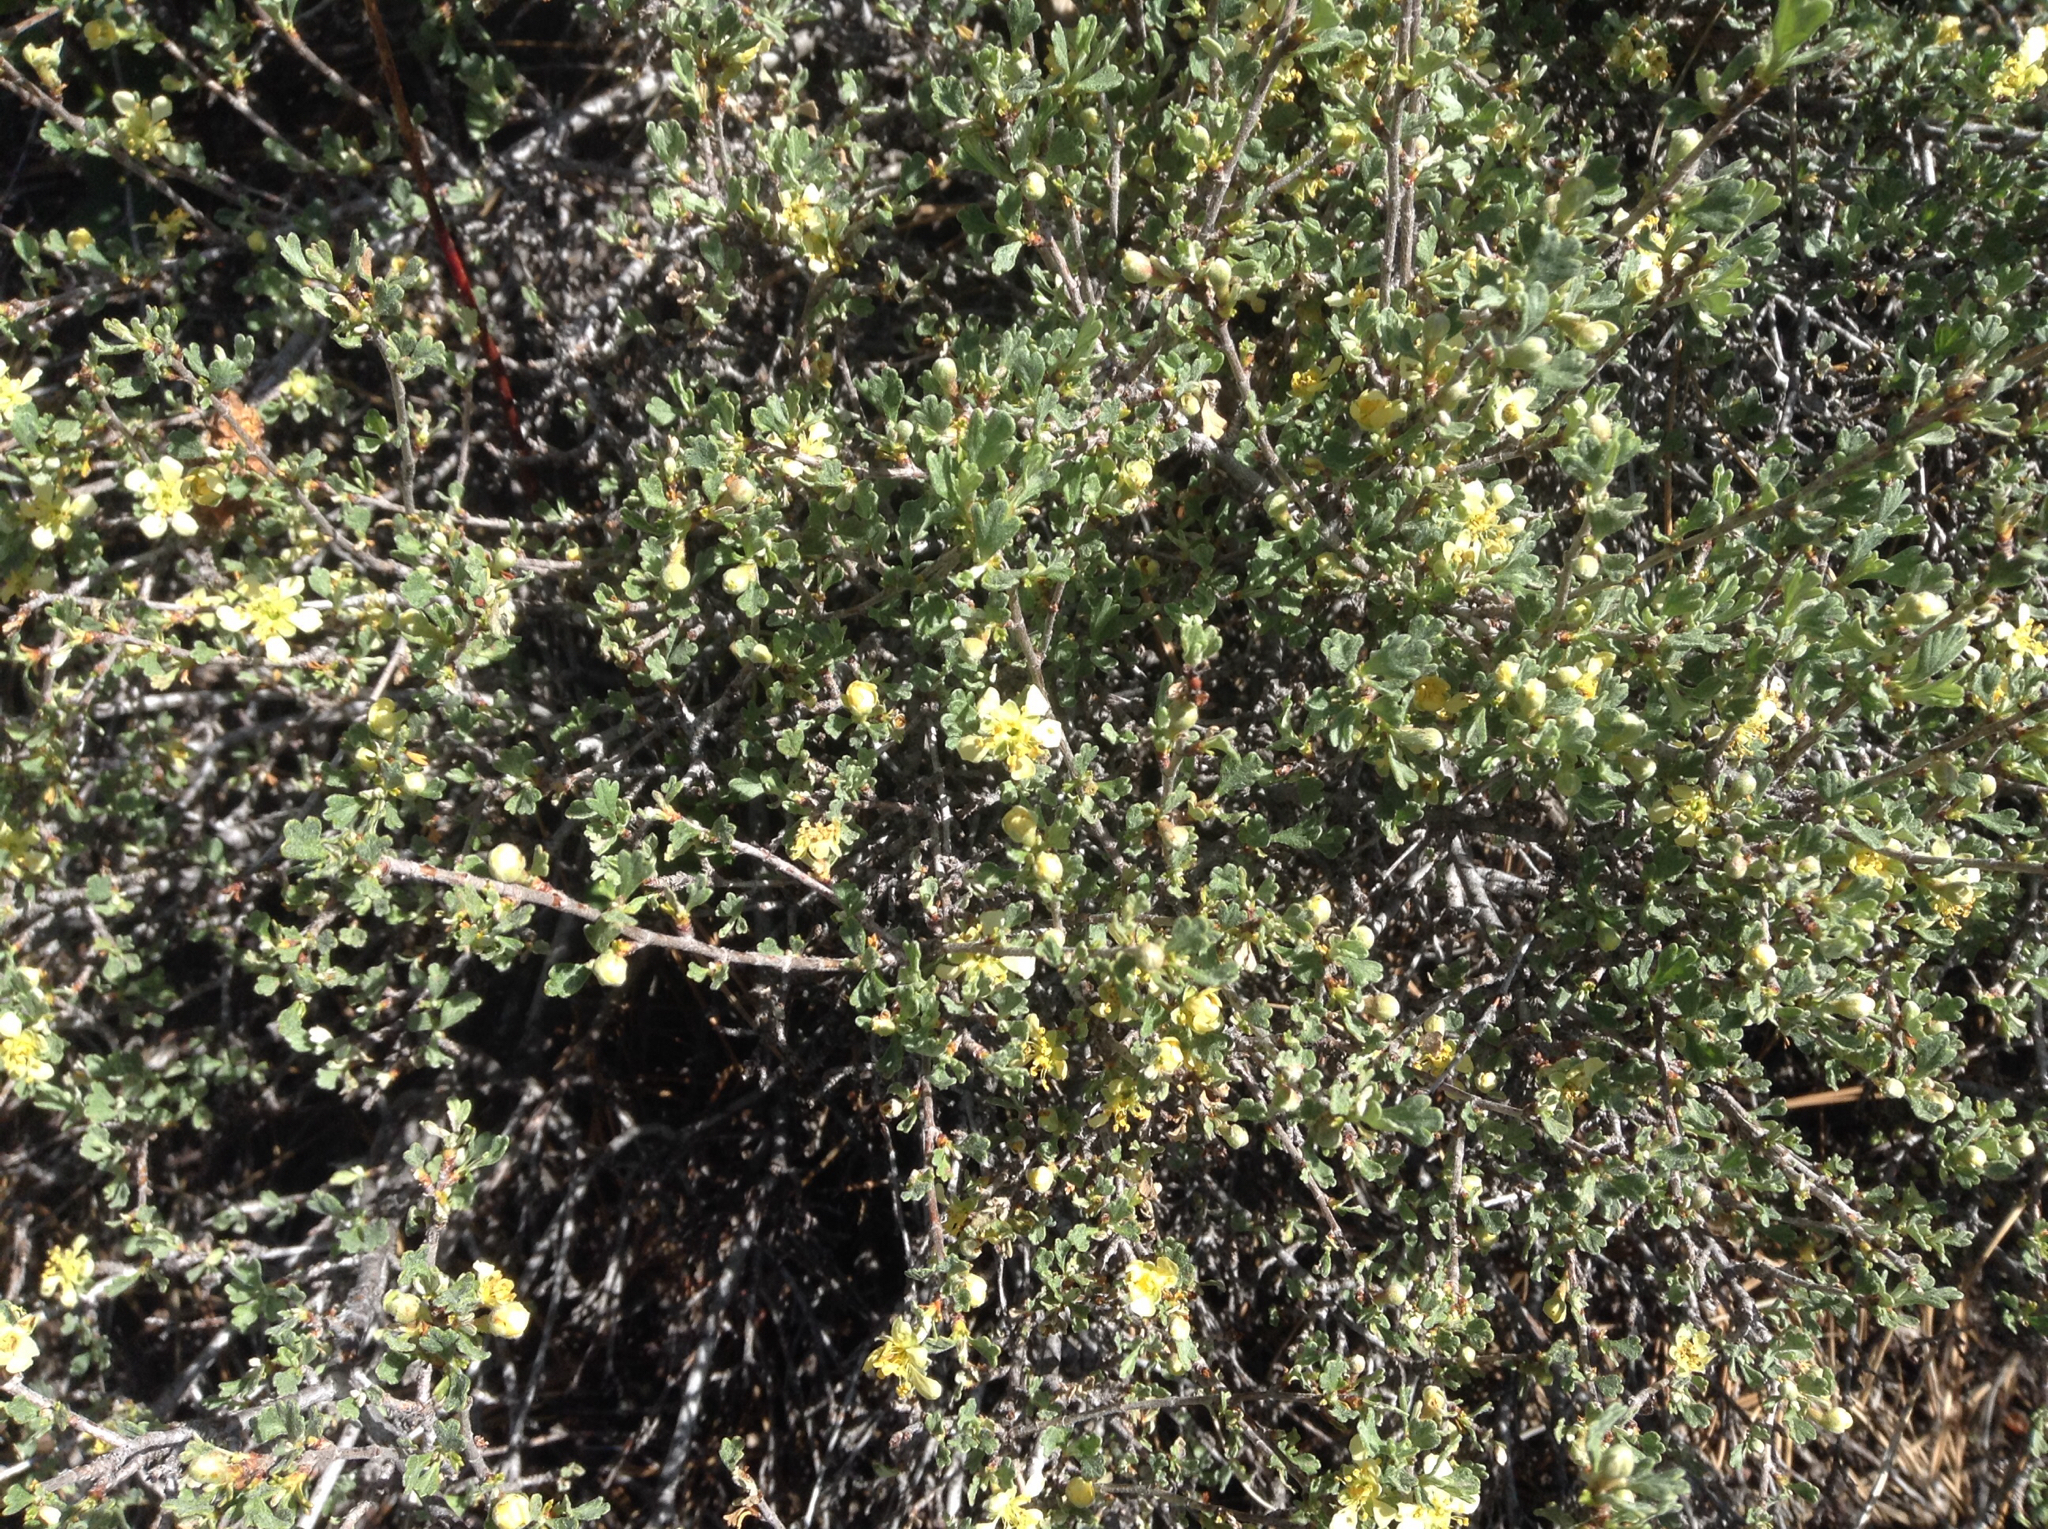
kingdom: Plantae
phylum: Tracheophyta
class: Magnoliopsida
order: Rosales
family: Rosaceae
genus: Purshia
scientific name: Purshia tridentata
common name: Antelope bitterbrush
